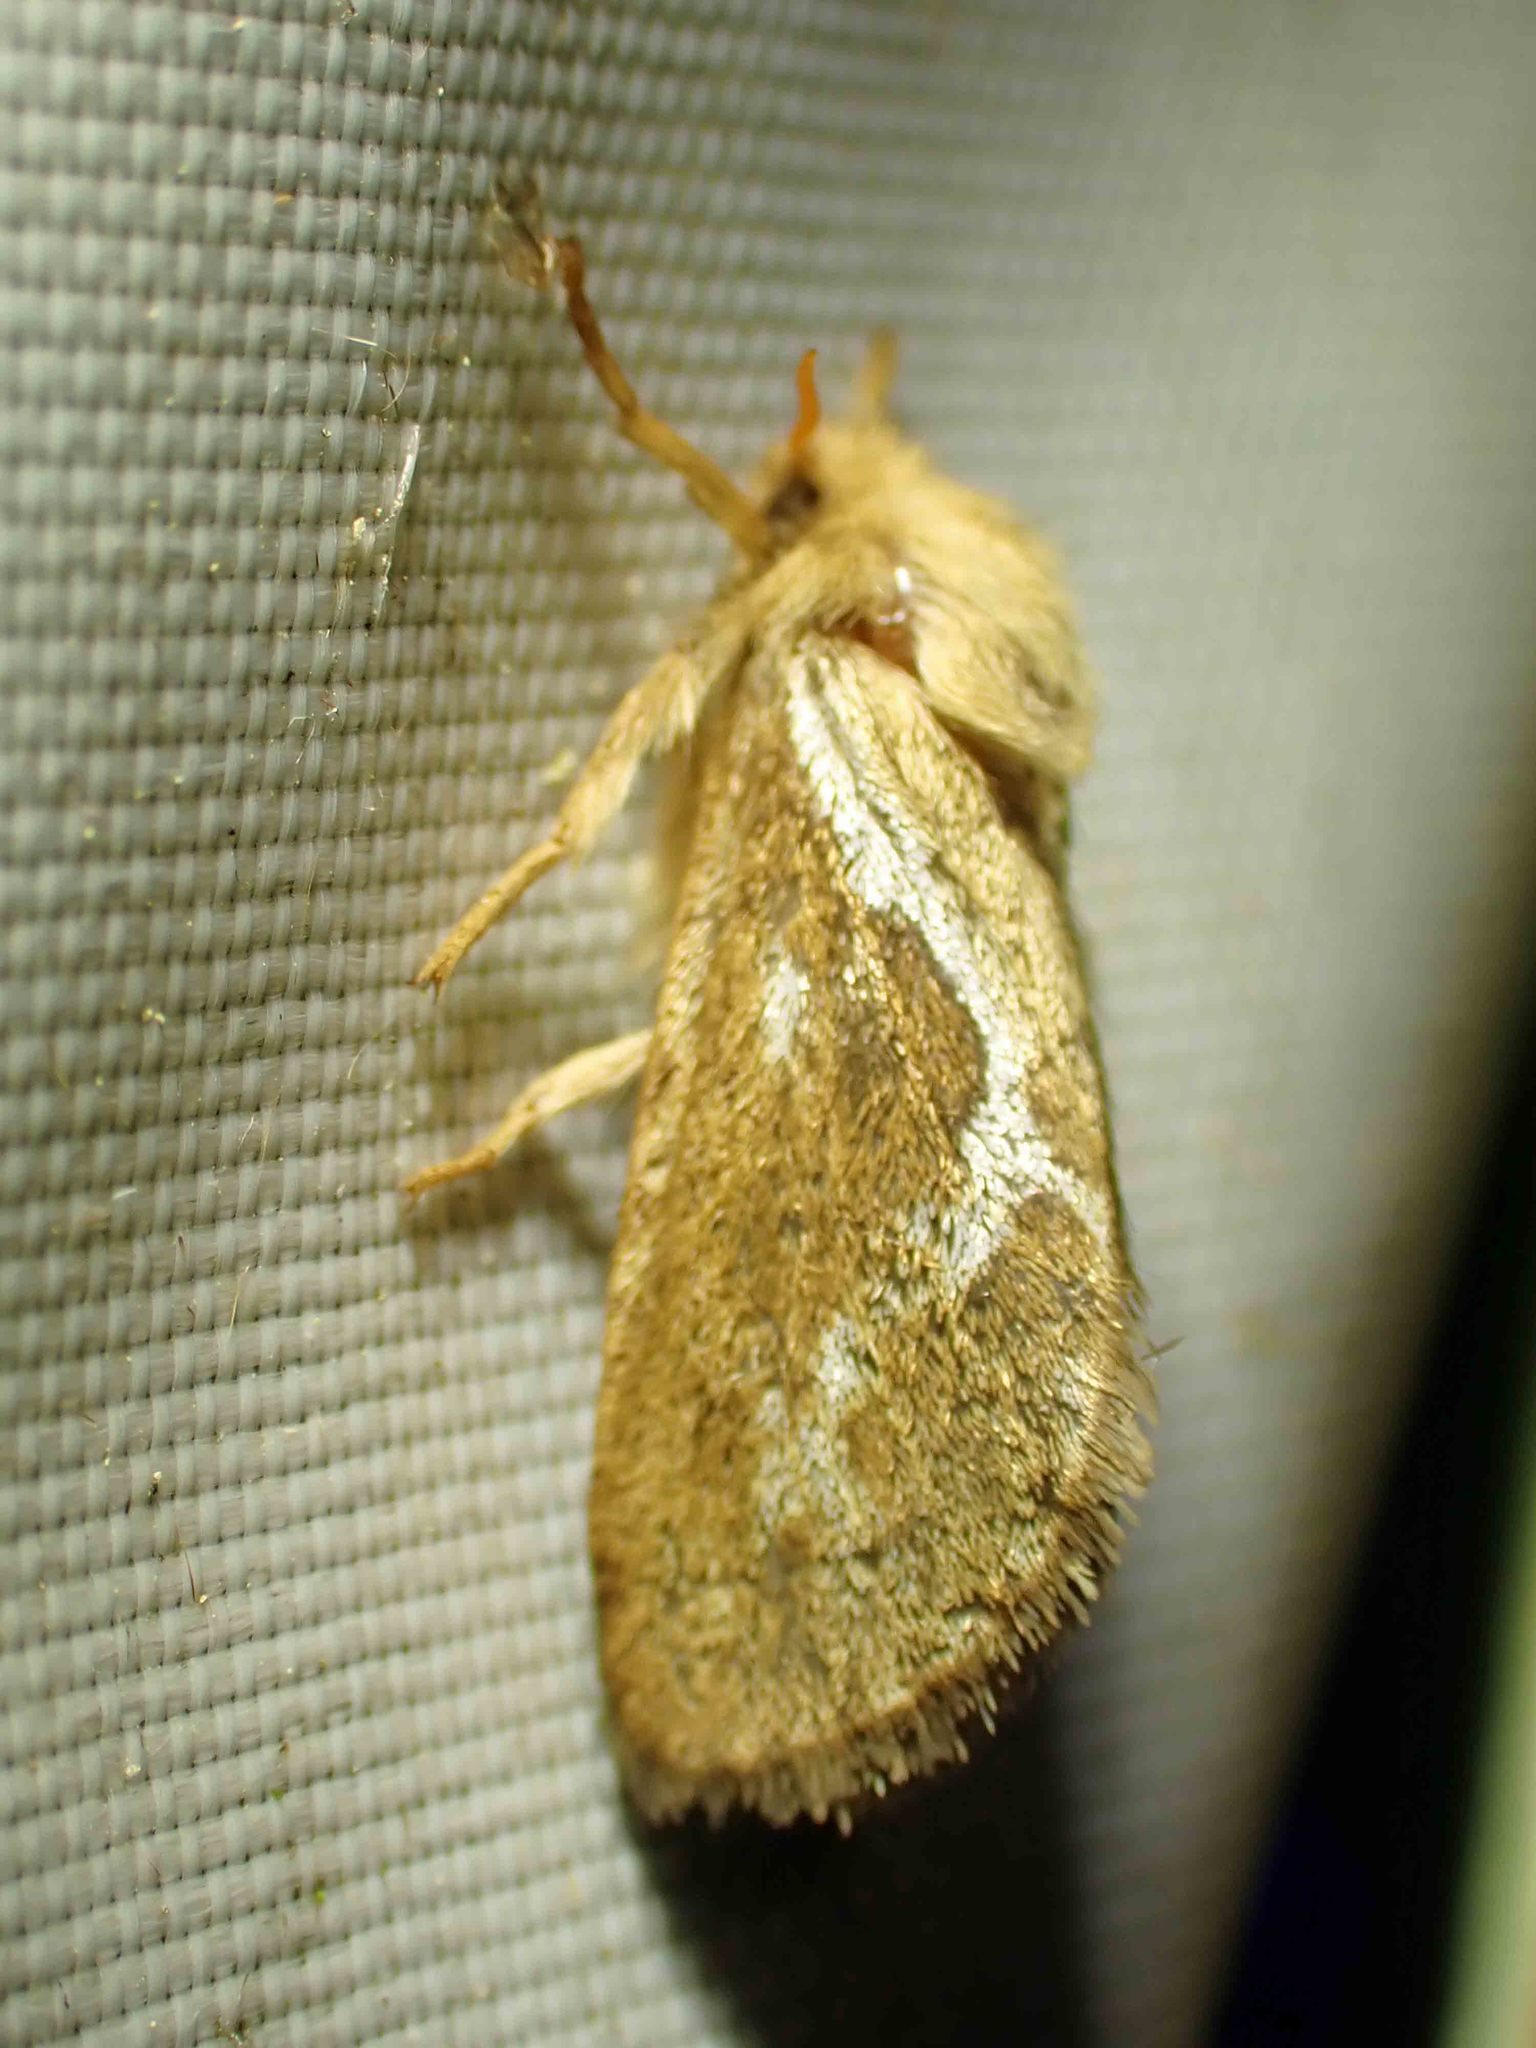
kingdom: Animalia
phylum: Arthropoda
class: Insecta
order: Lepidoptera
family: Hepialidae
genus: Korscheltellus
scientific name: Korscheltellus lupulina
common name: Common swift
